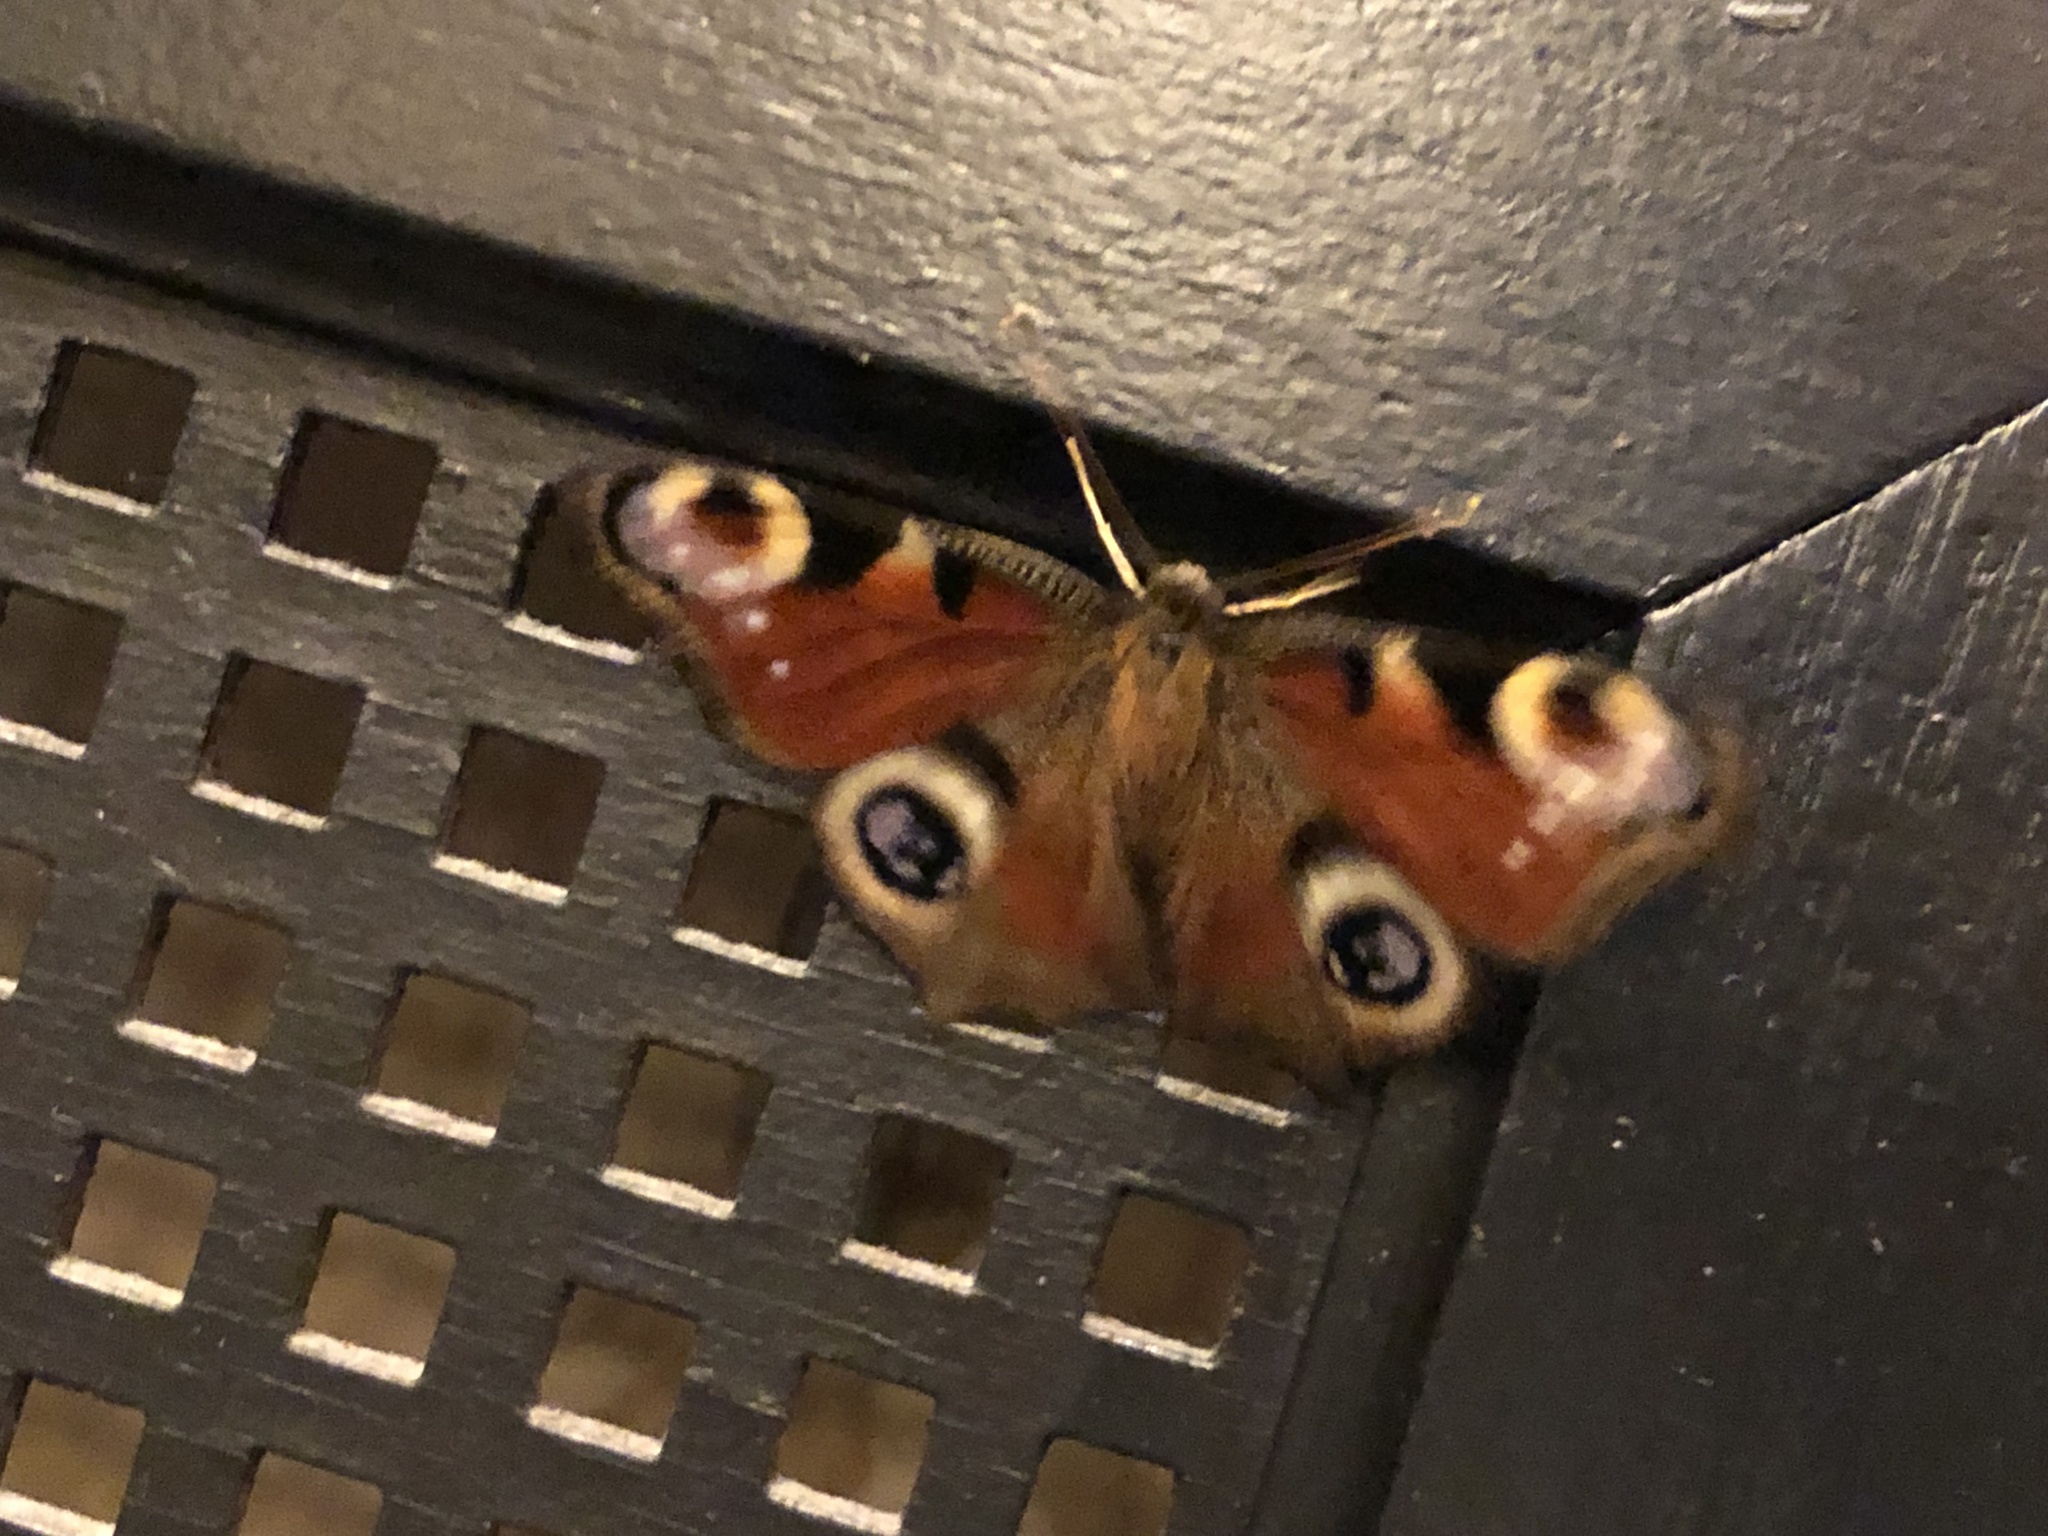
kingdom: Animalia
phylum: Arthropoda
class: Insecta
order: Lepidoptera
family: Nymphalidae
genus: Aglais
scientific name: Aglais io
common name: Peacock
